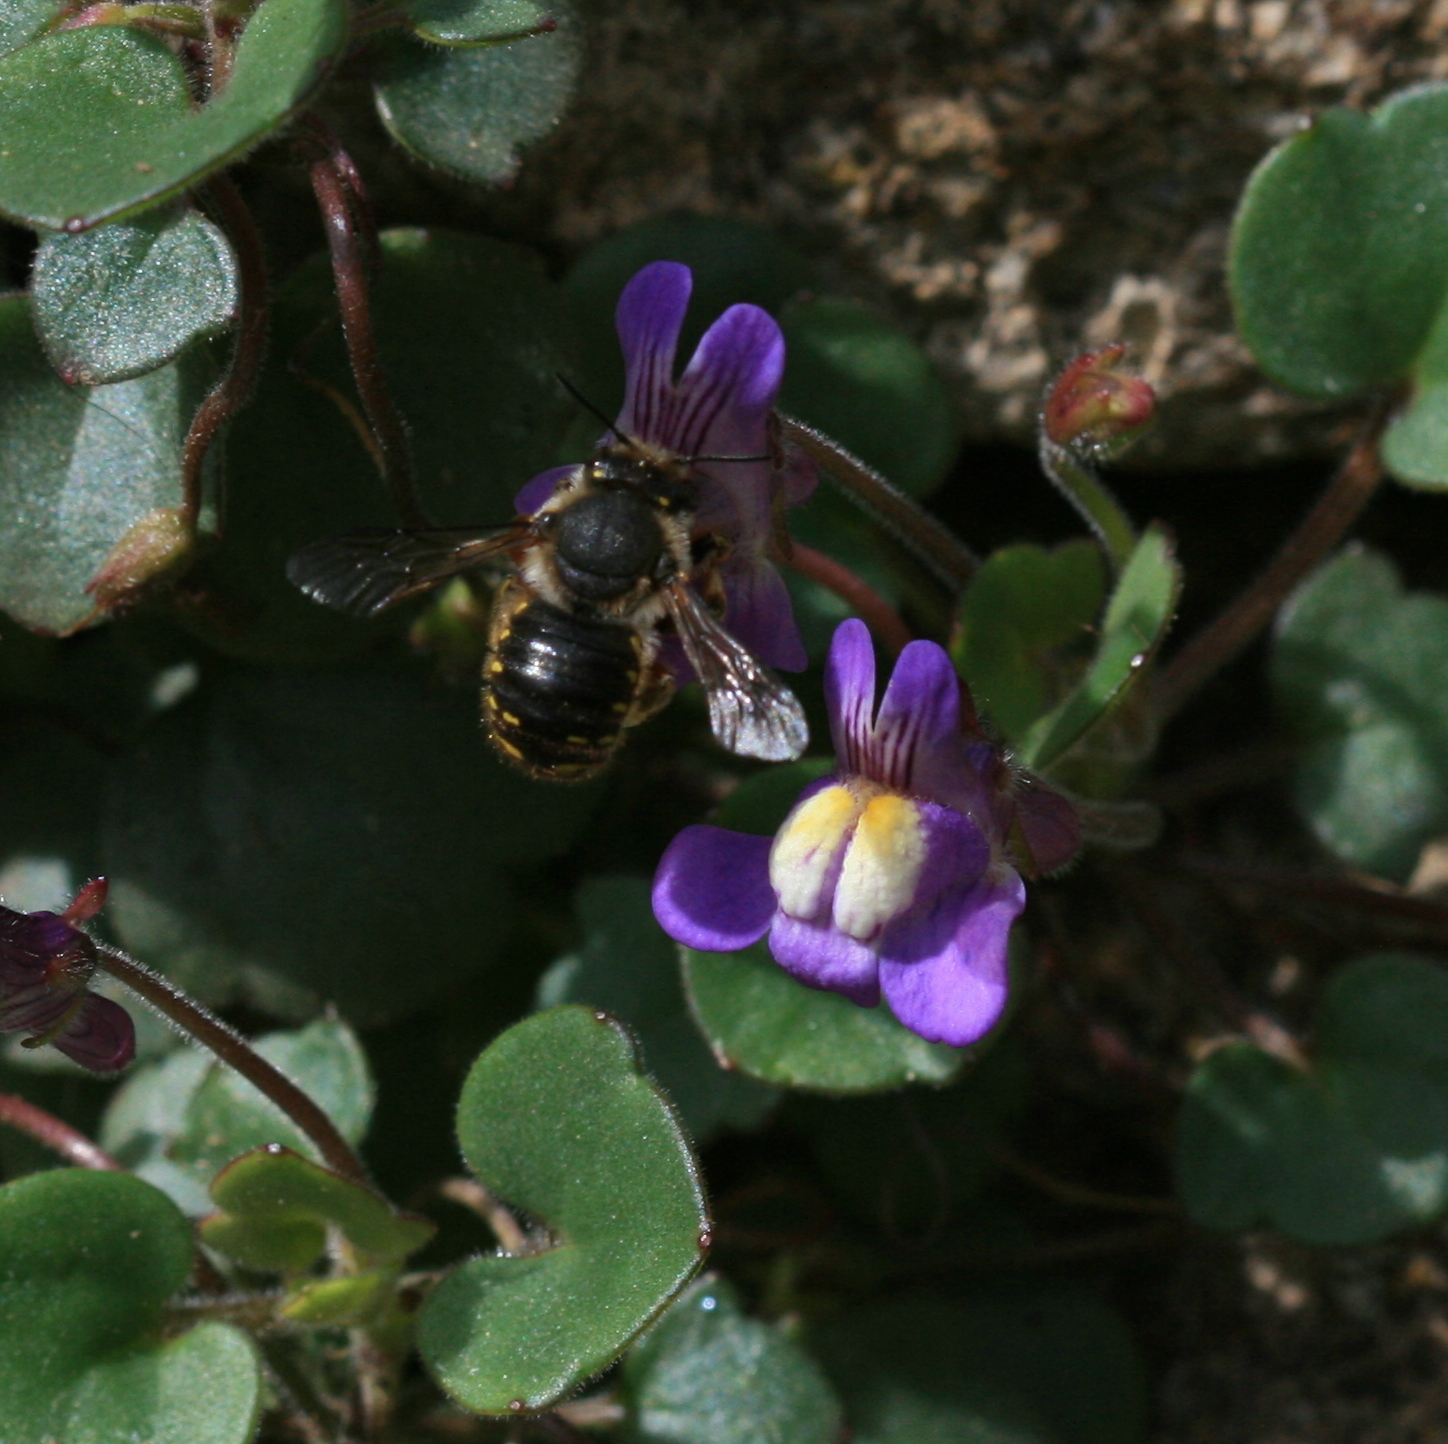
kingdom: Animalia
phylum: Arthropoda
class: Insecta
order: Hymenoptera
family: Megachilidae
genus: Anthidium
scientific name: Anthidium manicatum
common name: Wool carder bee
